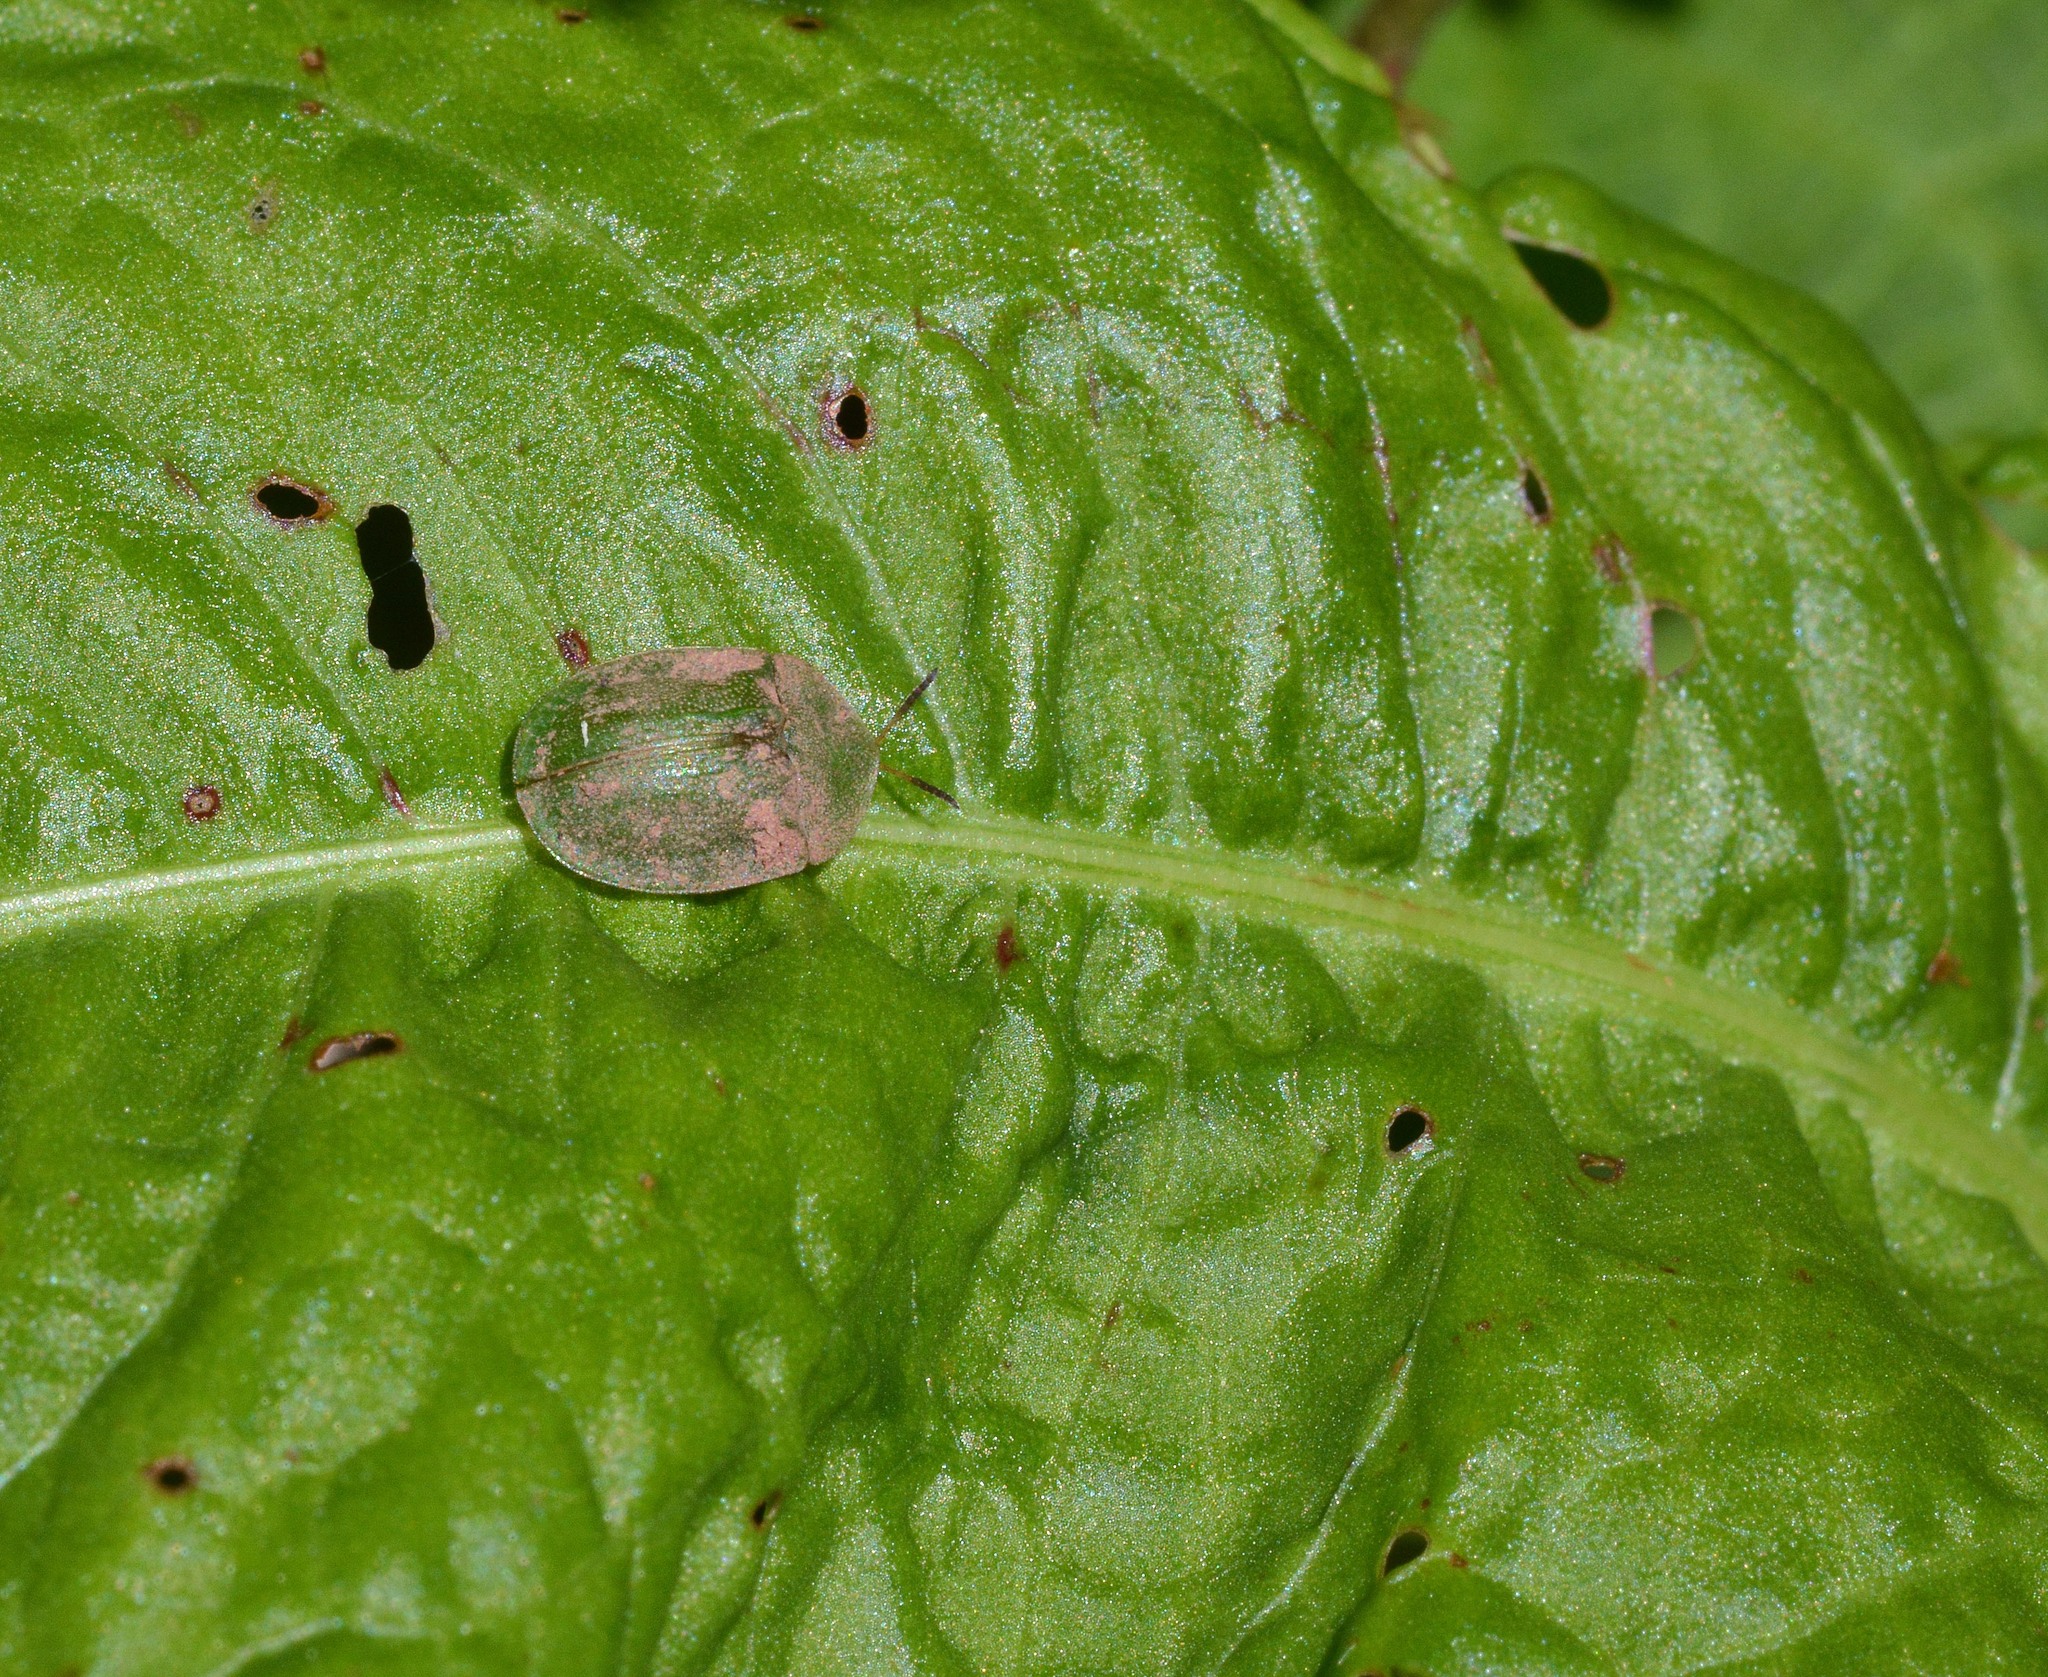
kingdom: Animalia
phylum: Arthropoda
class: Insecta
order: Coleoptera
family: Chrysomelidae
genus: Cassida
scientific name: Cassida rubiginosa
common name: Thistle tortoise beetle
